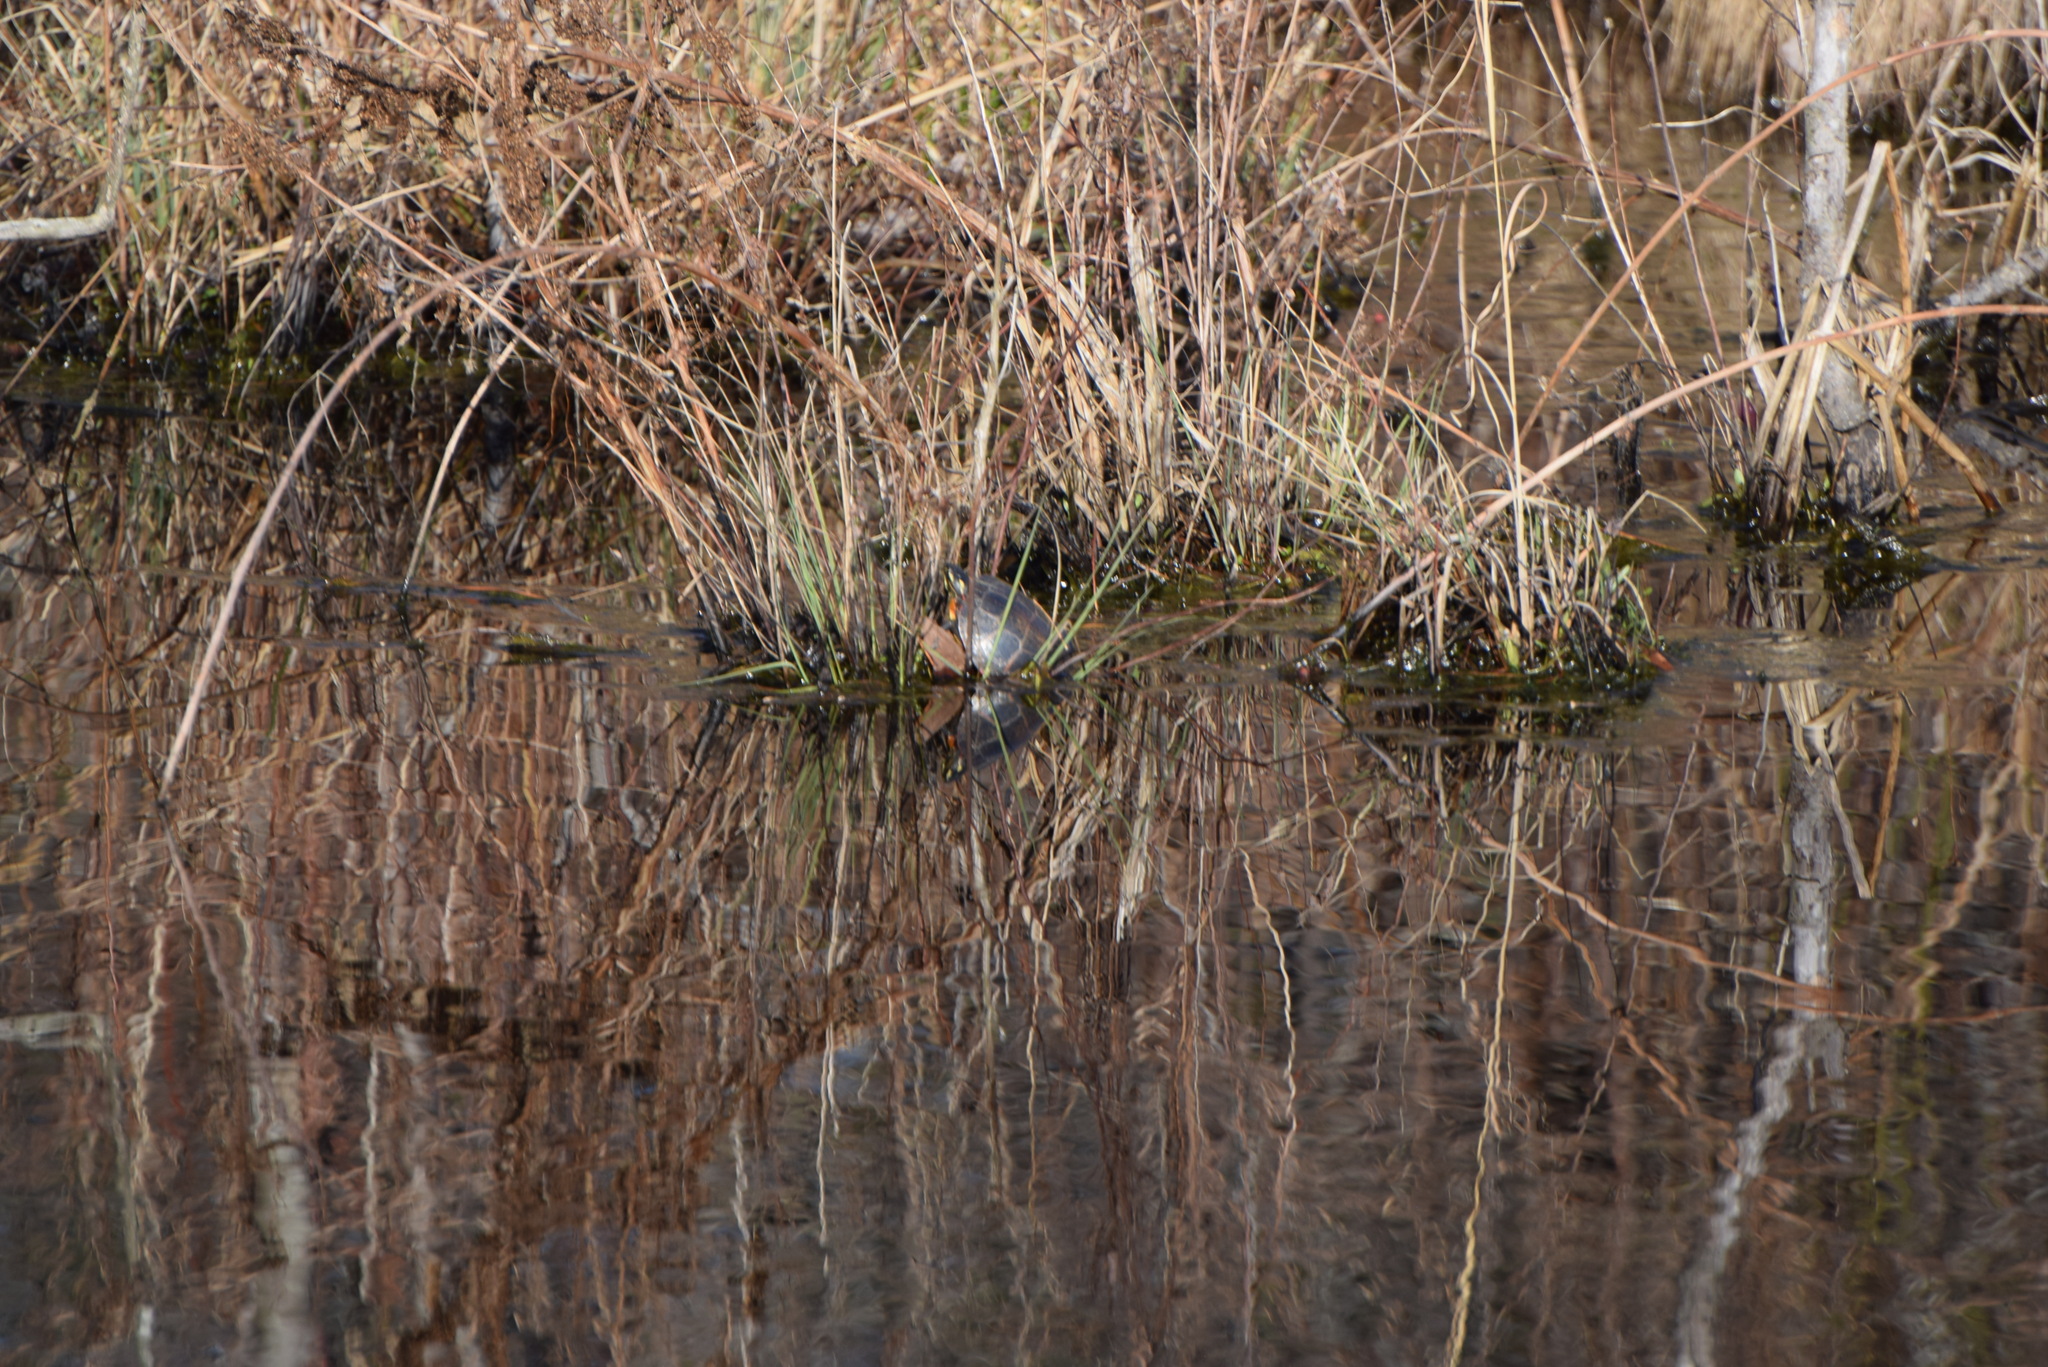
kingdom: Animalia
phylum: Chordata
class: Testudines
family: Emydidae
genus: Chrysemys
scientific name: Chrysemys picta
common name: Painted turtle
